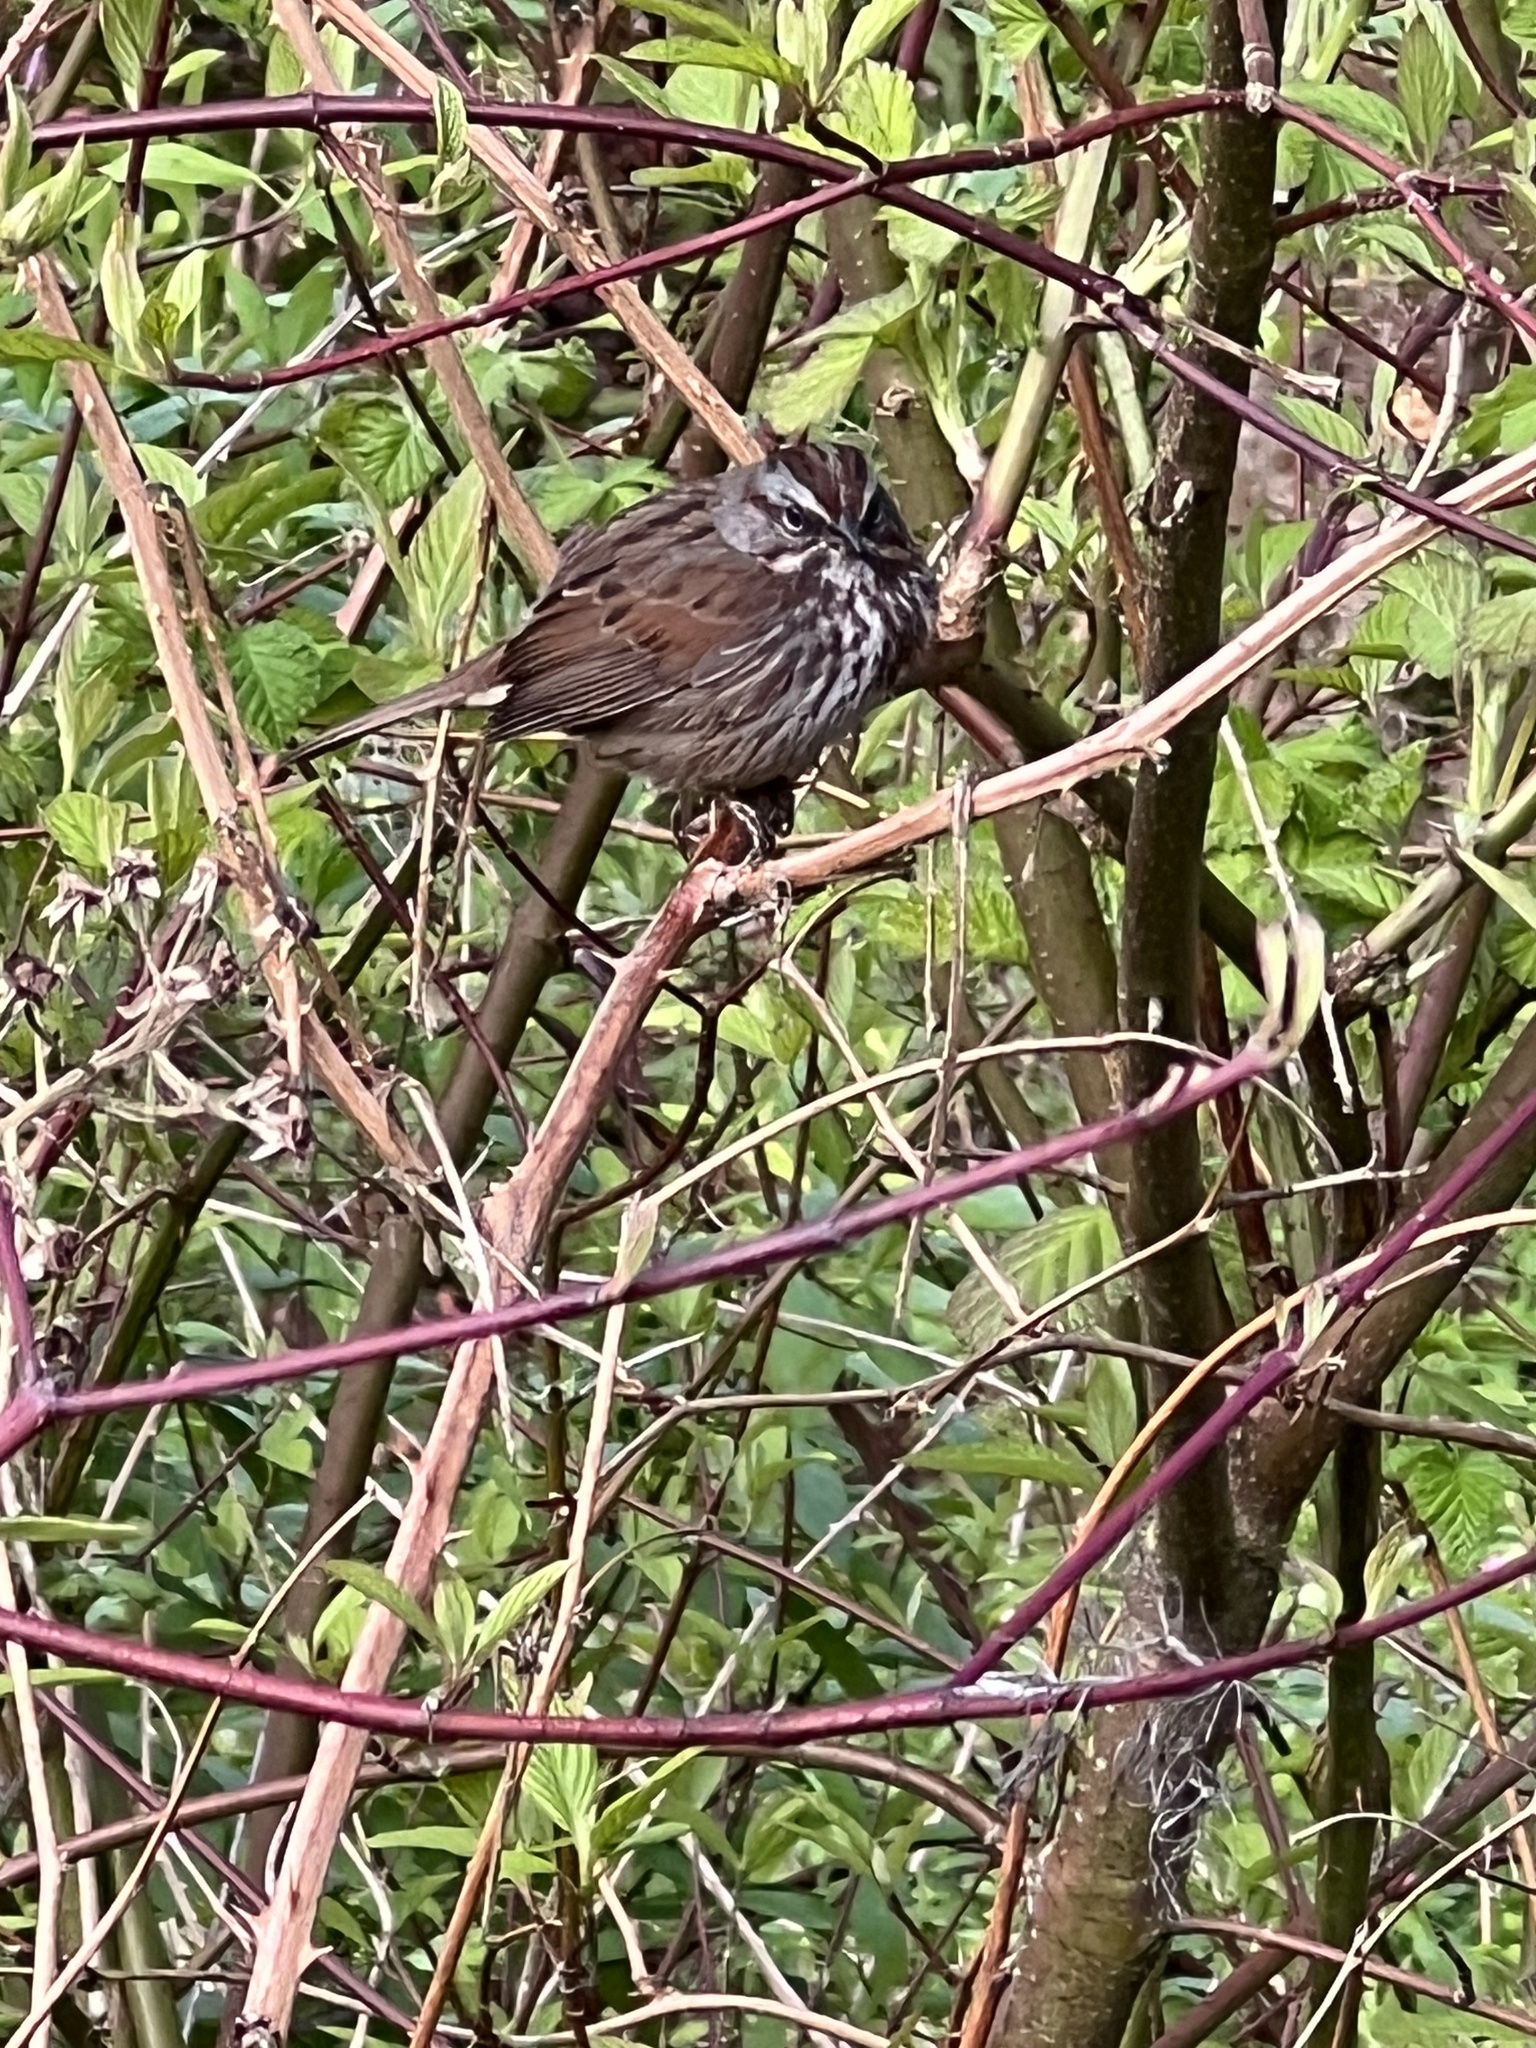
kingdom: Animalia
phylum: Chordata
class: Aves
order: Passeriformes
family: Passerellidae
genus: Melospiza
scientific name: Melospiza melodia
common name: Song sparrow
